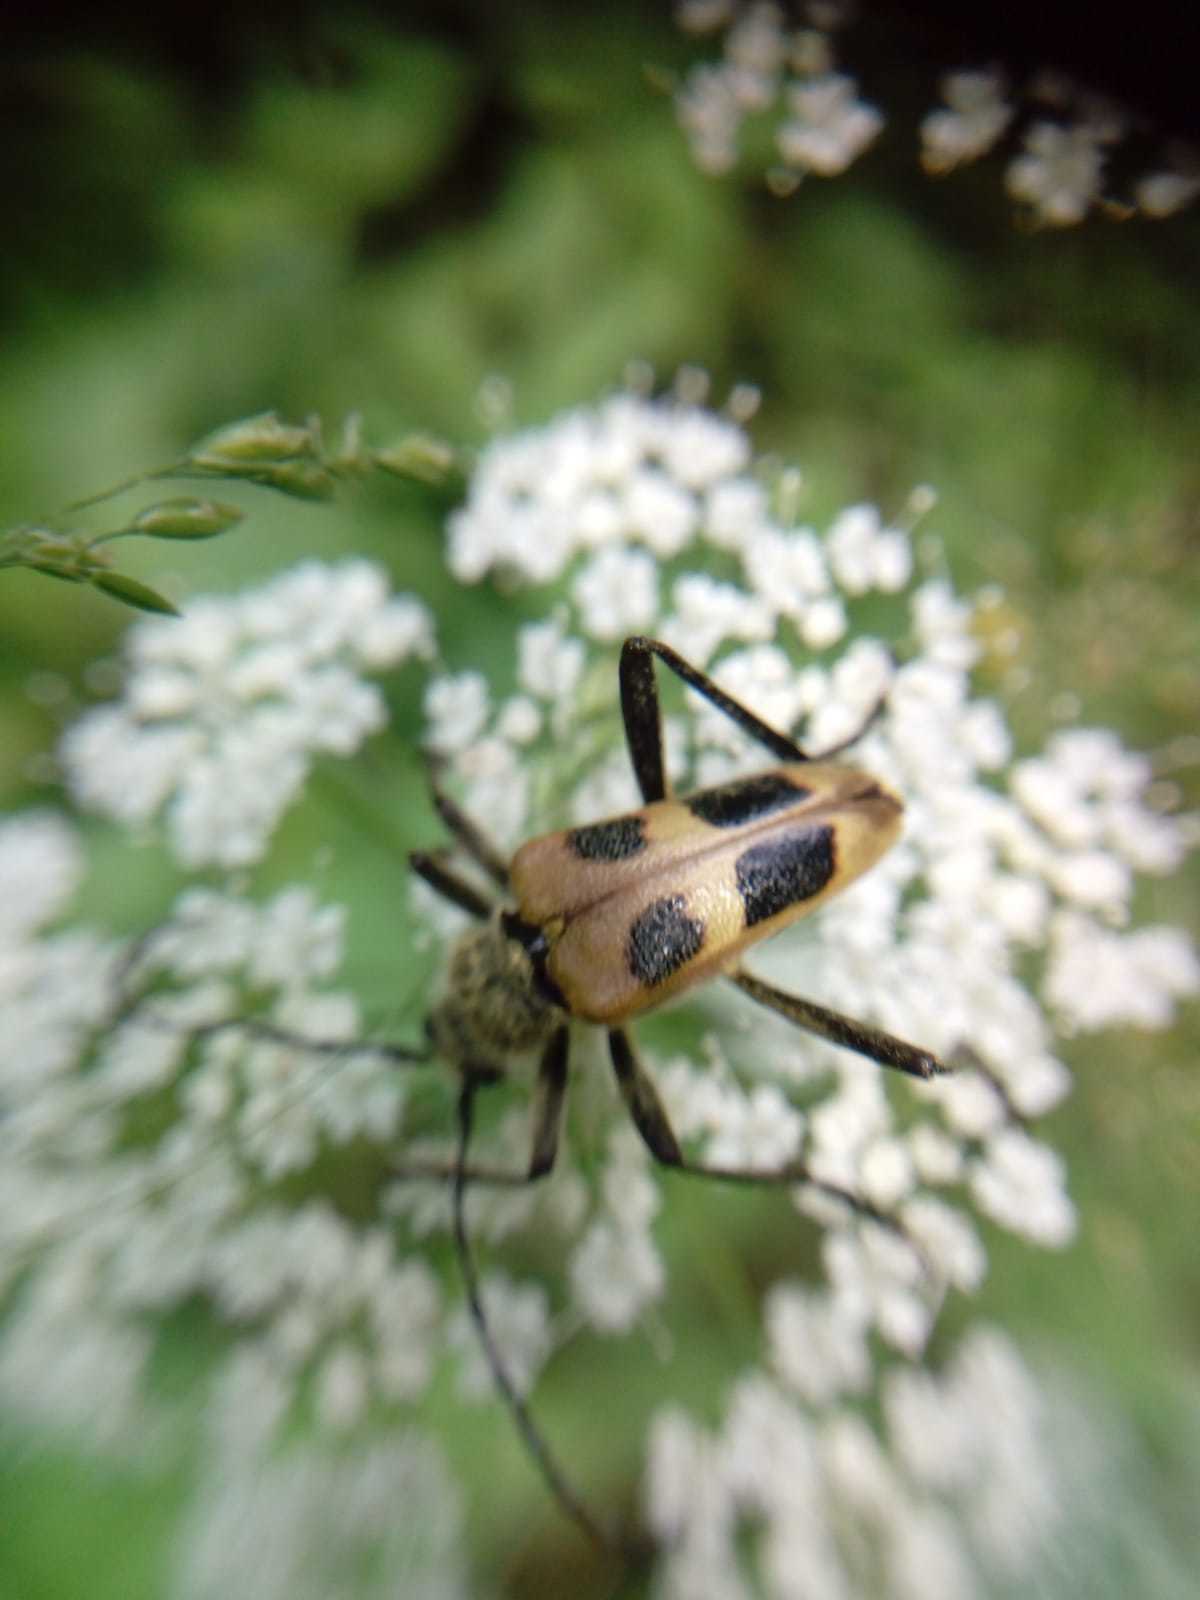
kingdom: Animalia
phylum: Arthropoda
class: Insecta
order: Coleoptera
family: Cerambycidae
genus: Pachyta
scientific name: Pachyta quadrimaculata
